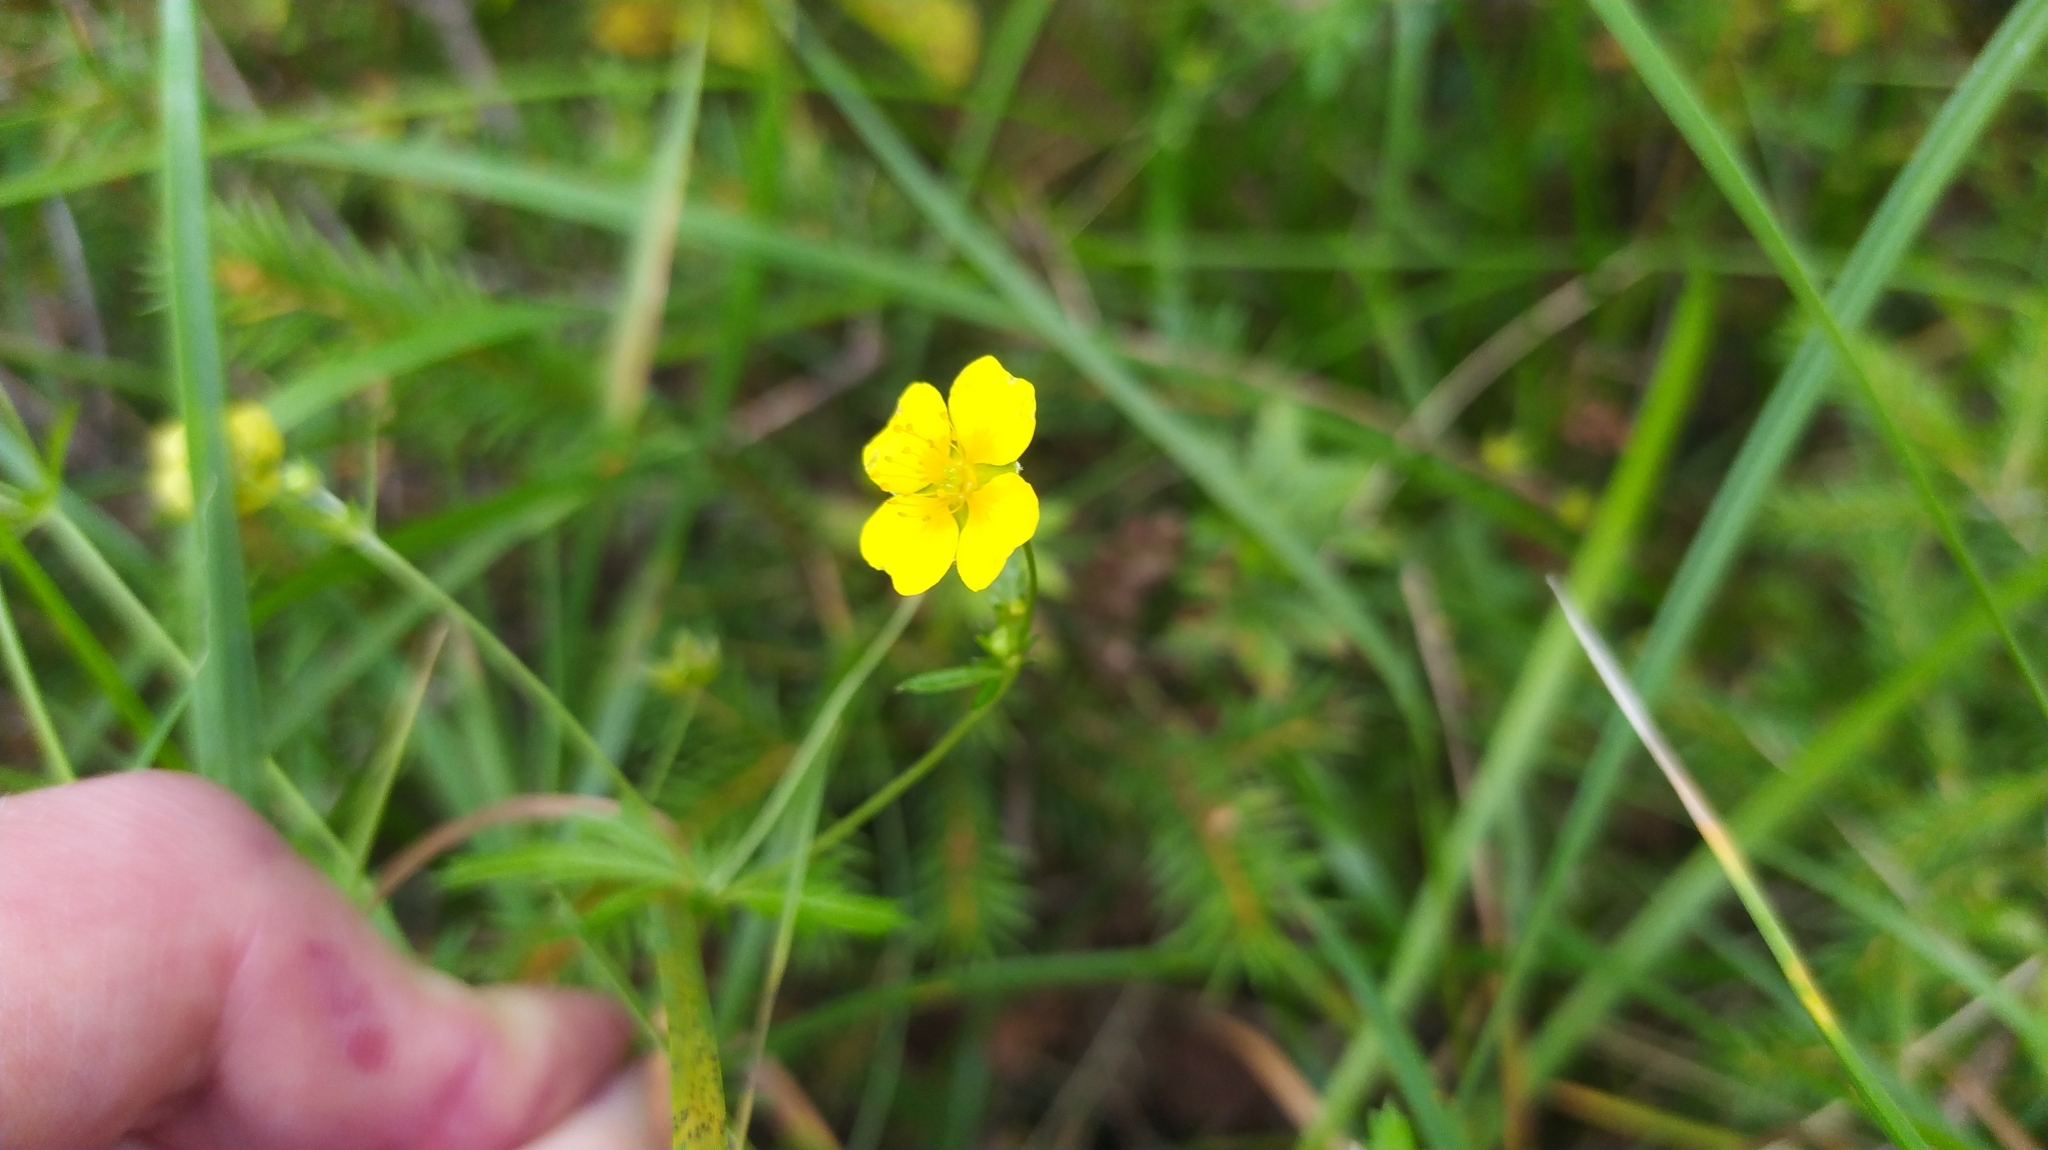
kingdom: Plantae
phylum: Tracheophyta
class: Magnoliopsida
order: Rosales
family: Rosaceae
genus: Potentilla
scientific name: Potentilla erecta
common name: Tormentil
